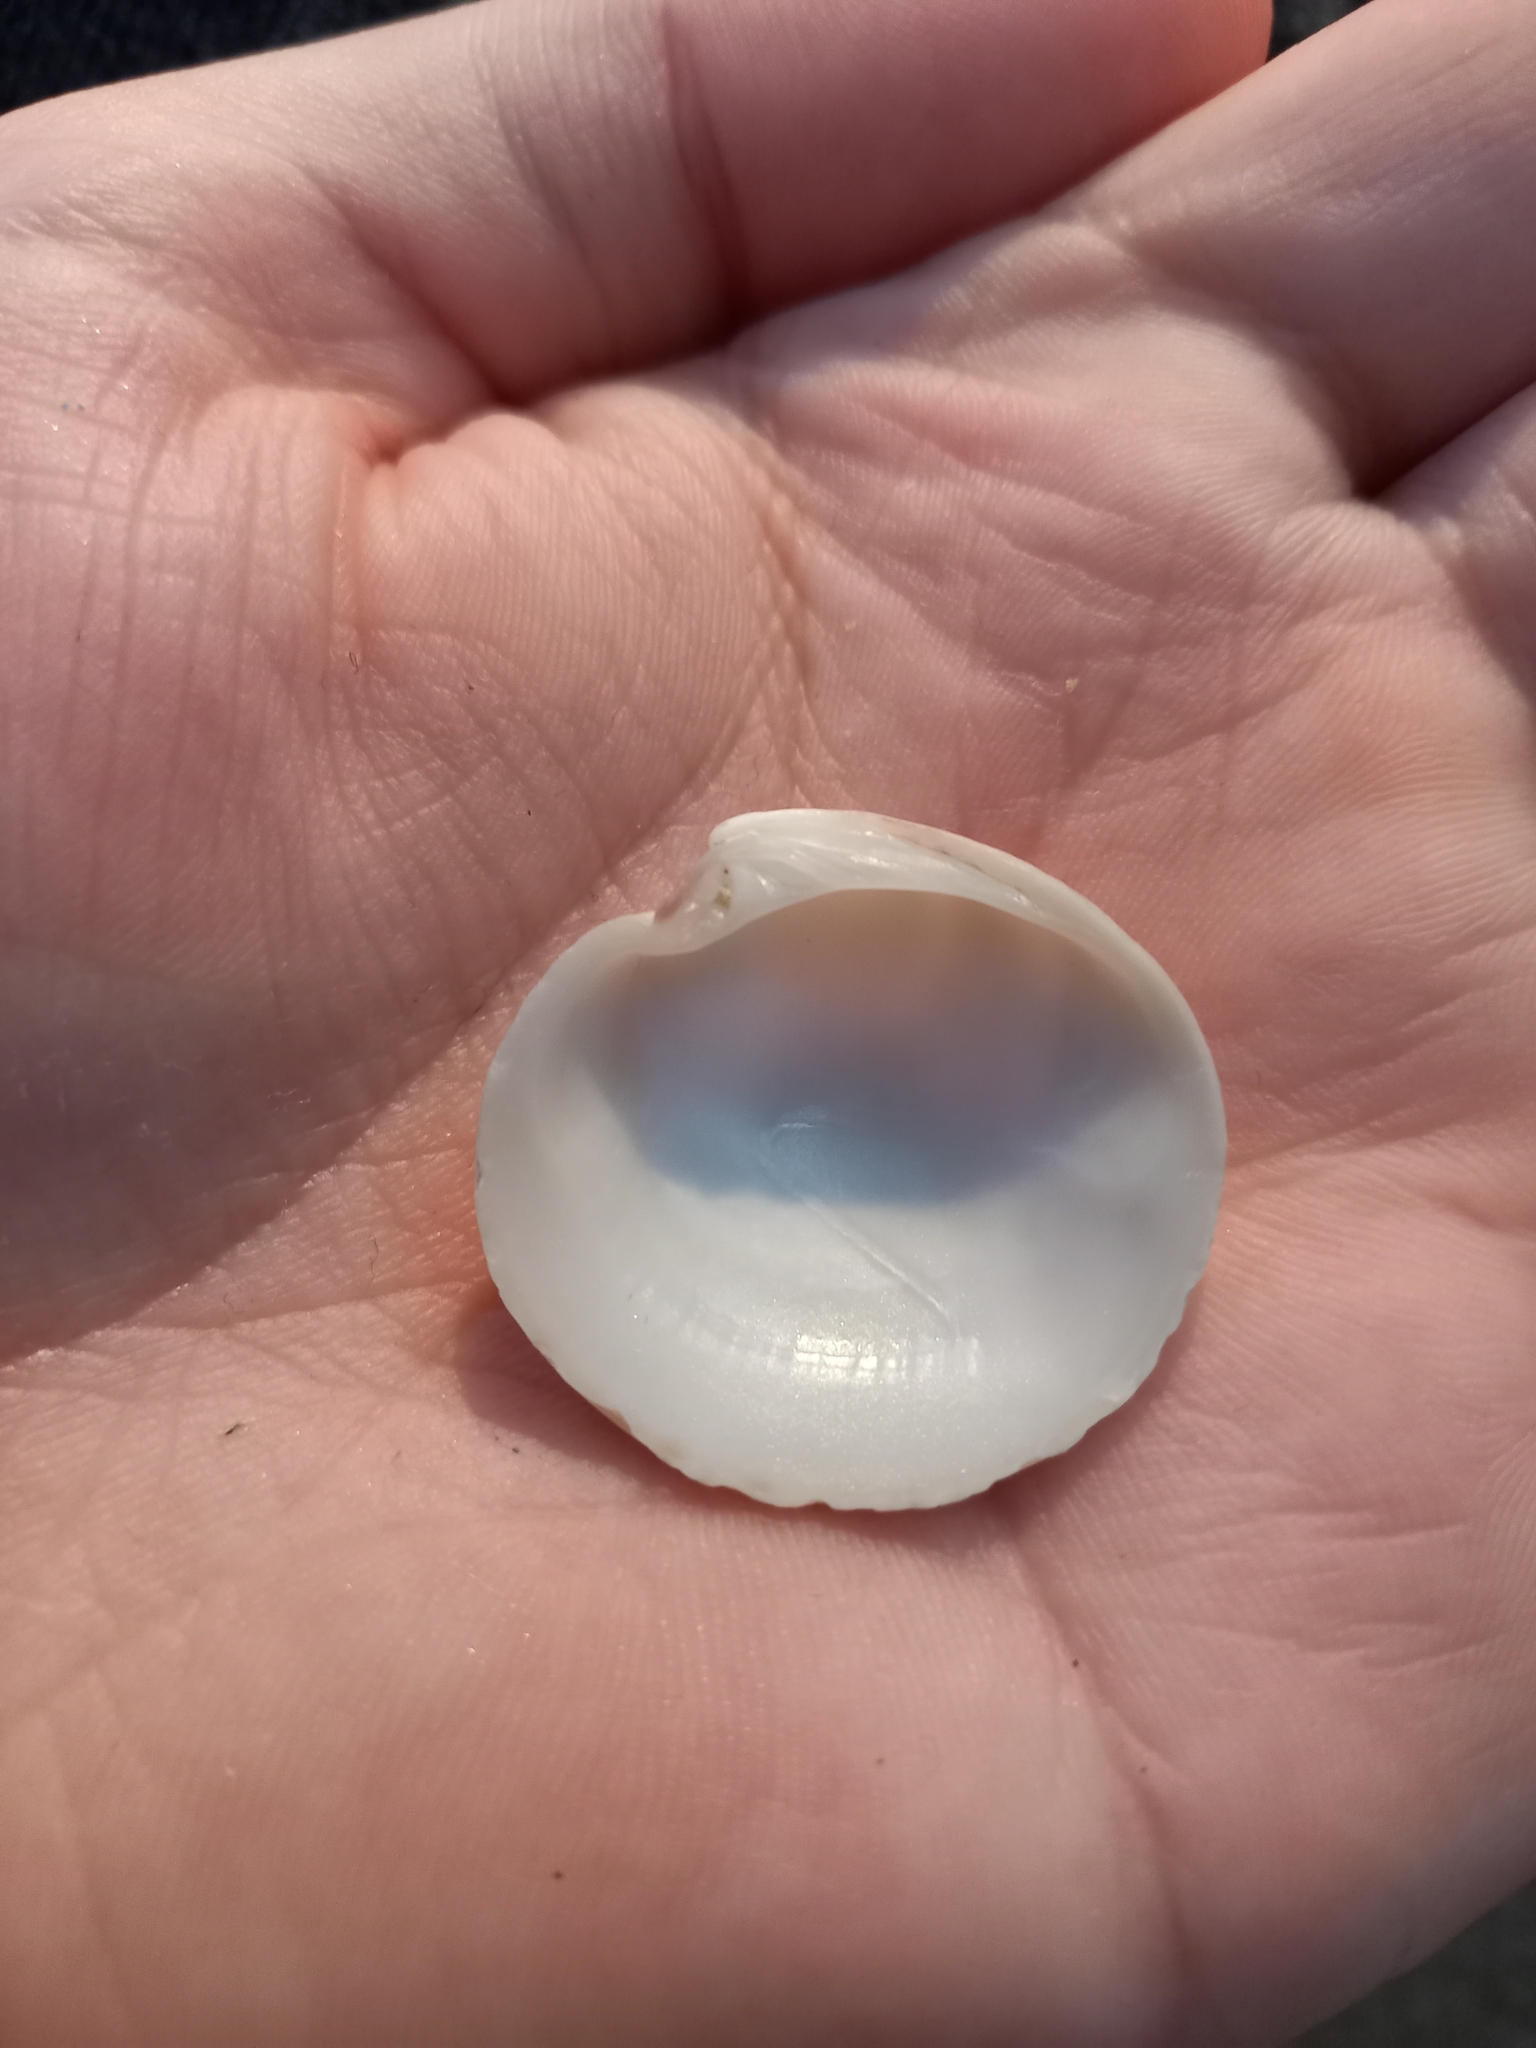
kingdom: Animalia
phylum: Mollusca
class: Bivalvia
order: Venerida
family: Veneridae
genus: Dosinia
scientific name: Dosinia maoriana
